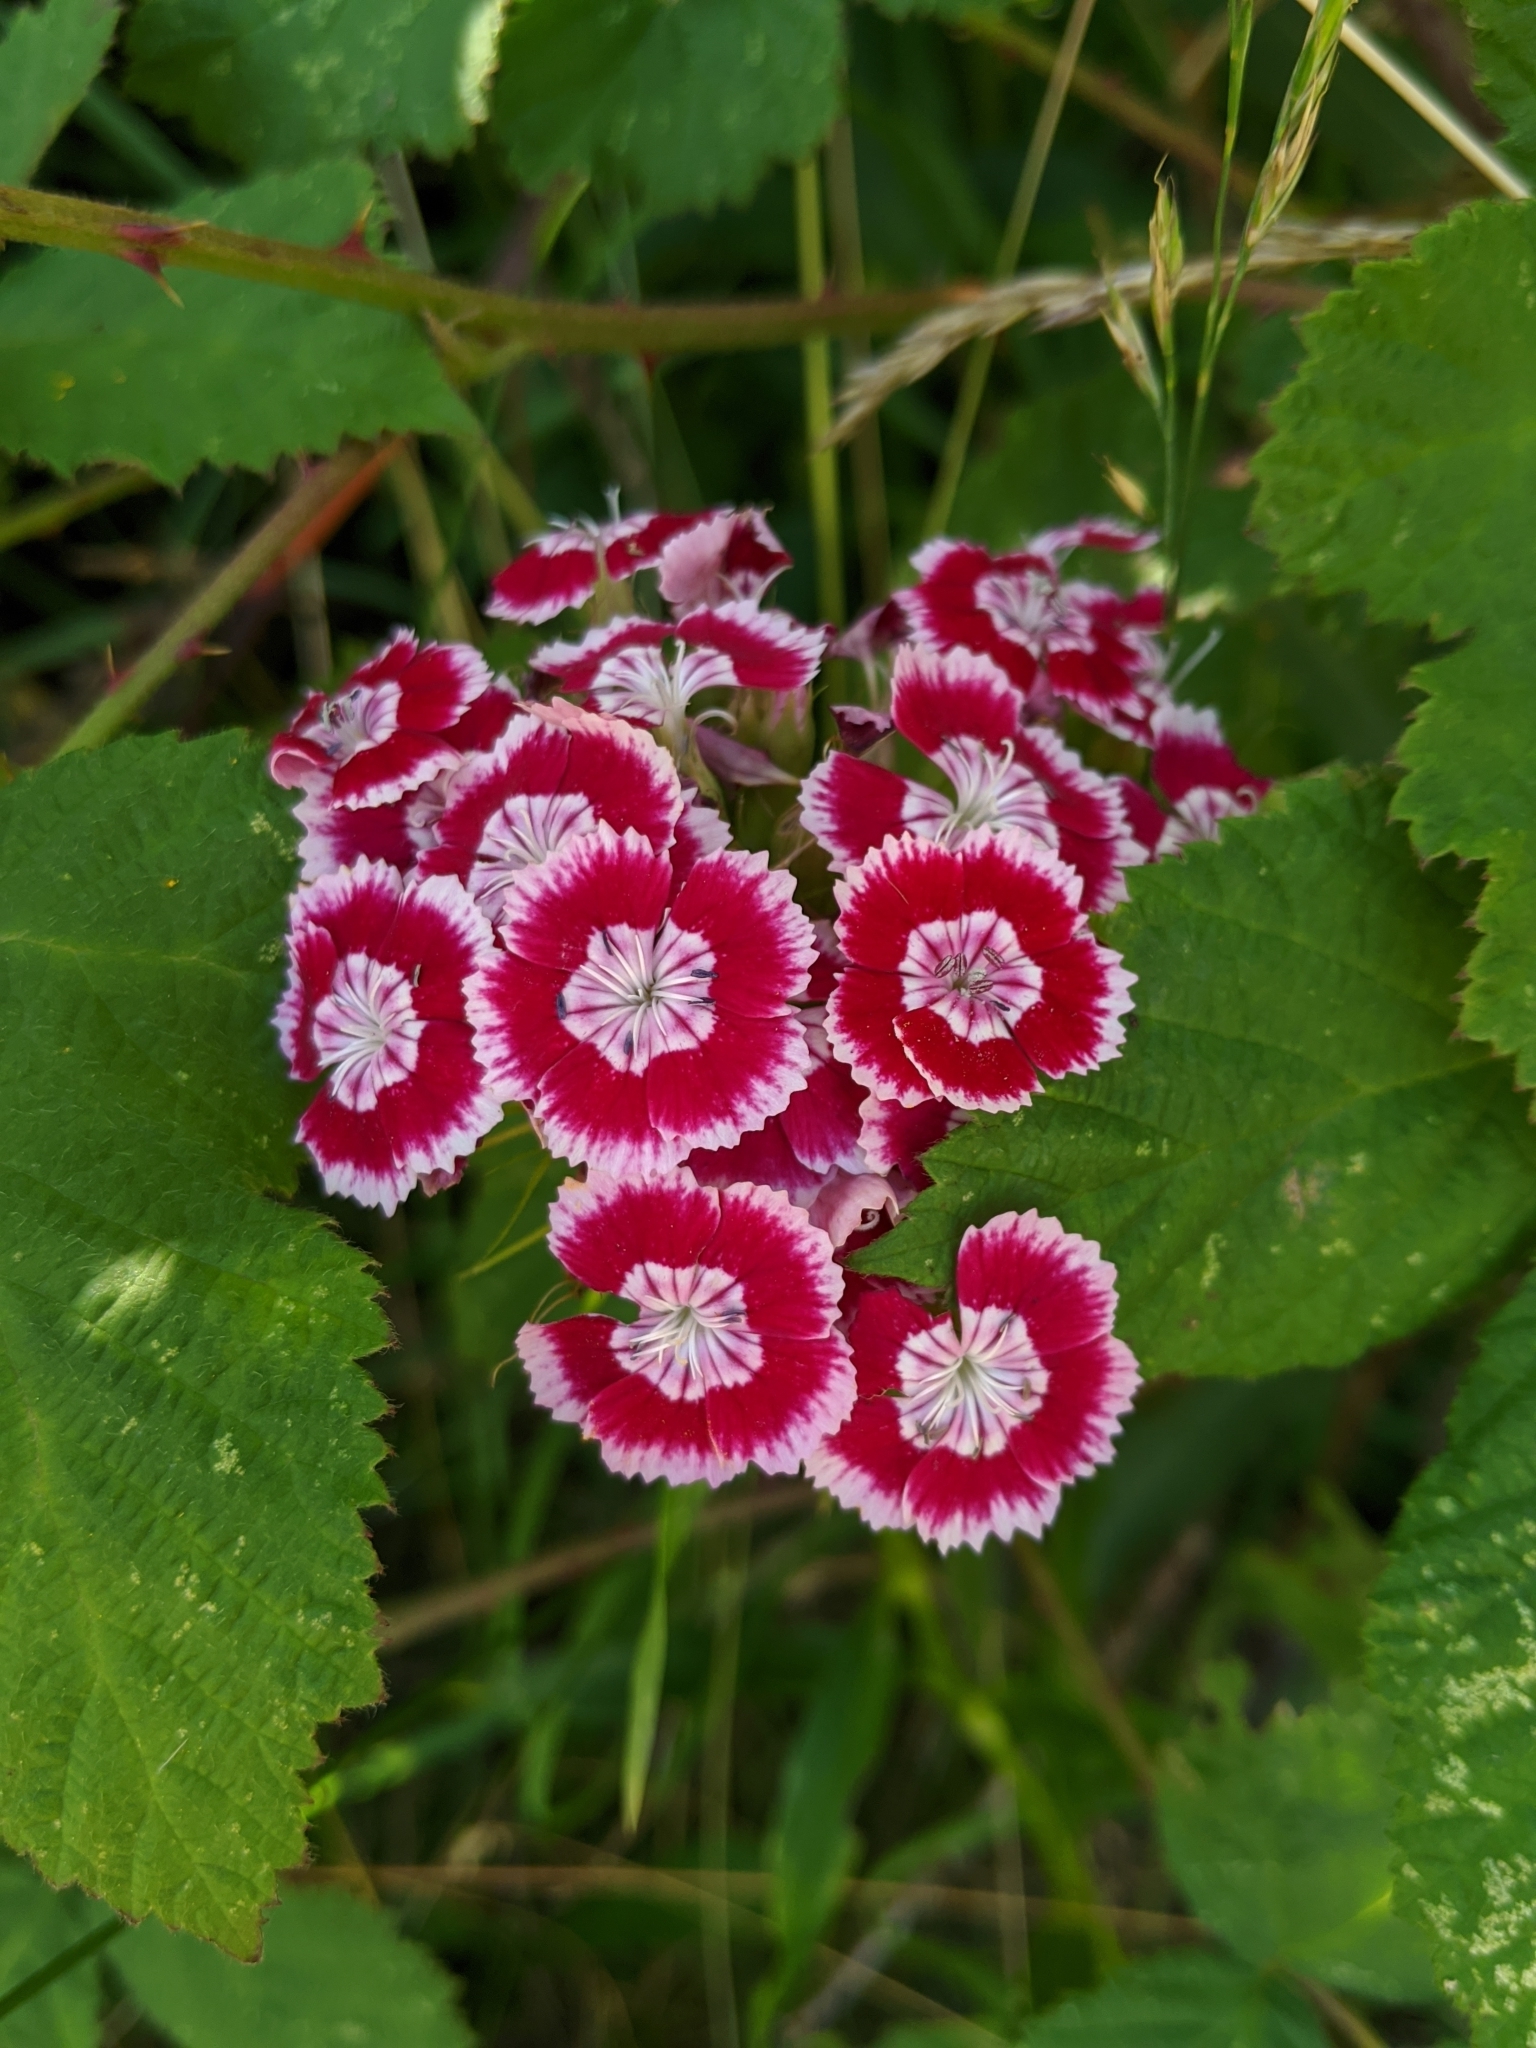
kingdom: Plantae
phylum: Tracheophyta
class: Magnoliopsida
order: Caryophyllales
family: Caryophyllaceae
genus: Dianthus
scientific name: Dianthus barbatus
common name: Sweet-william
